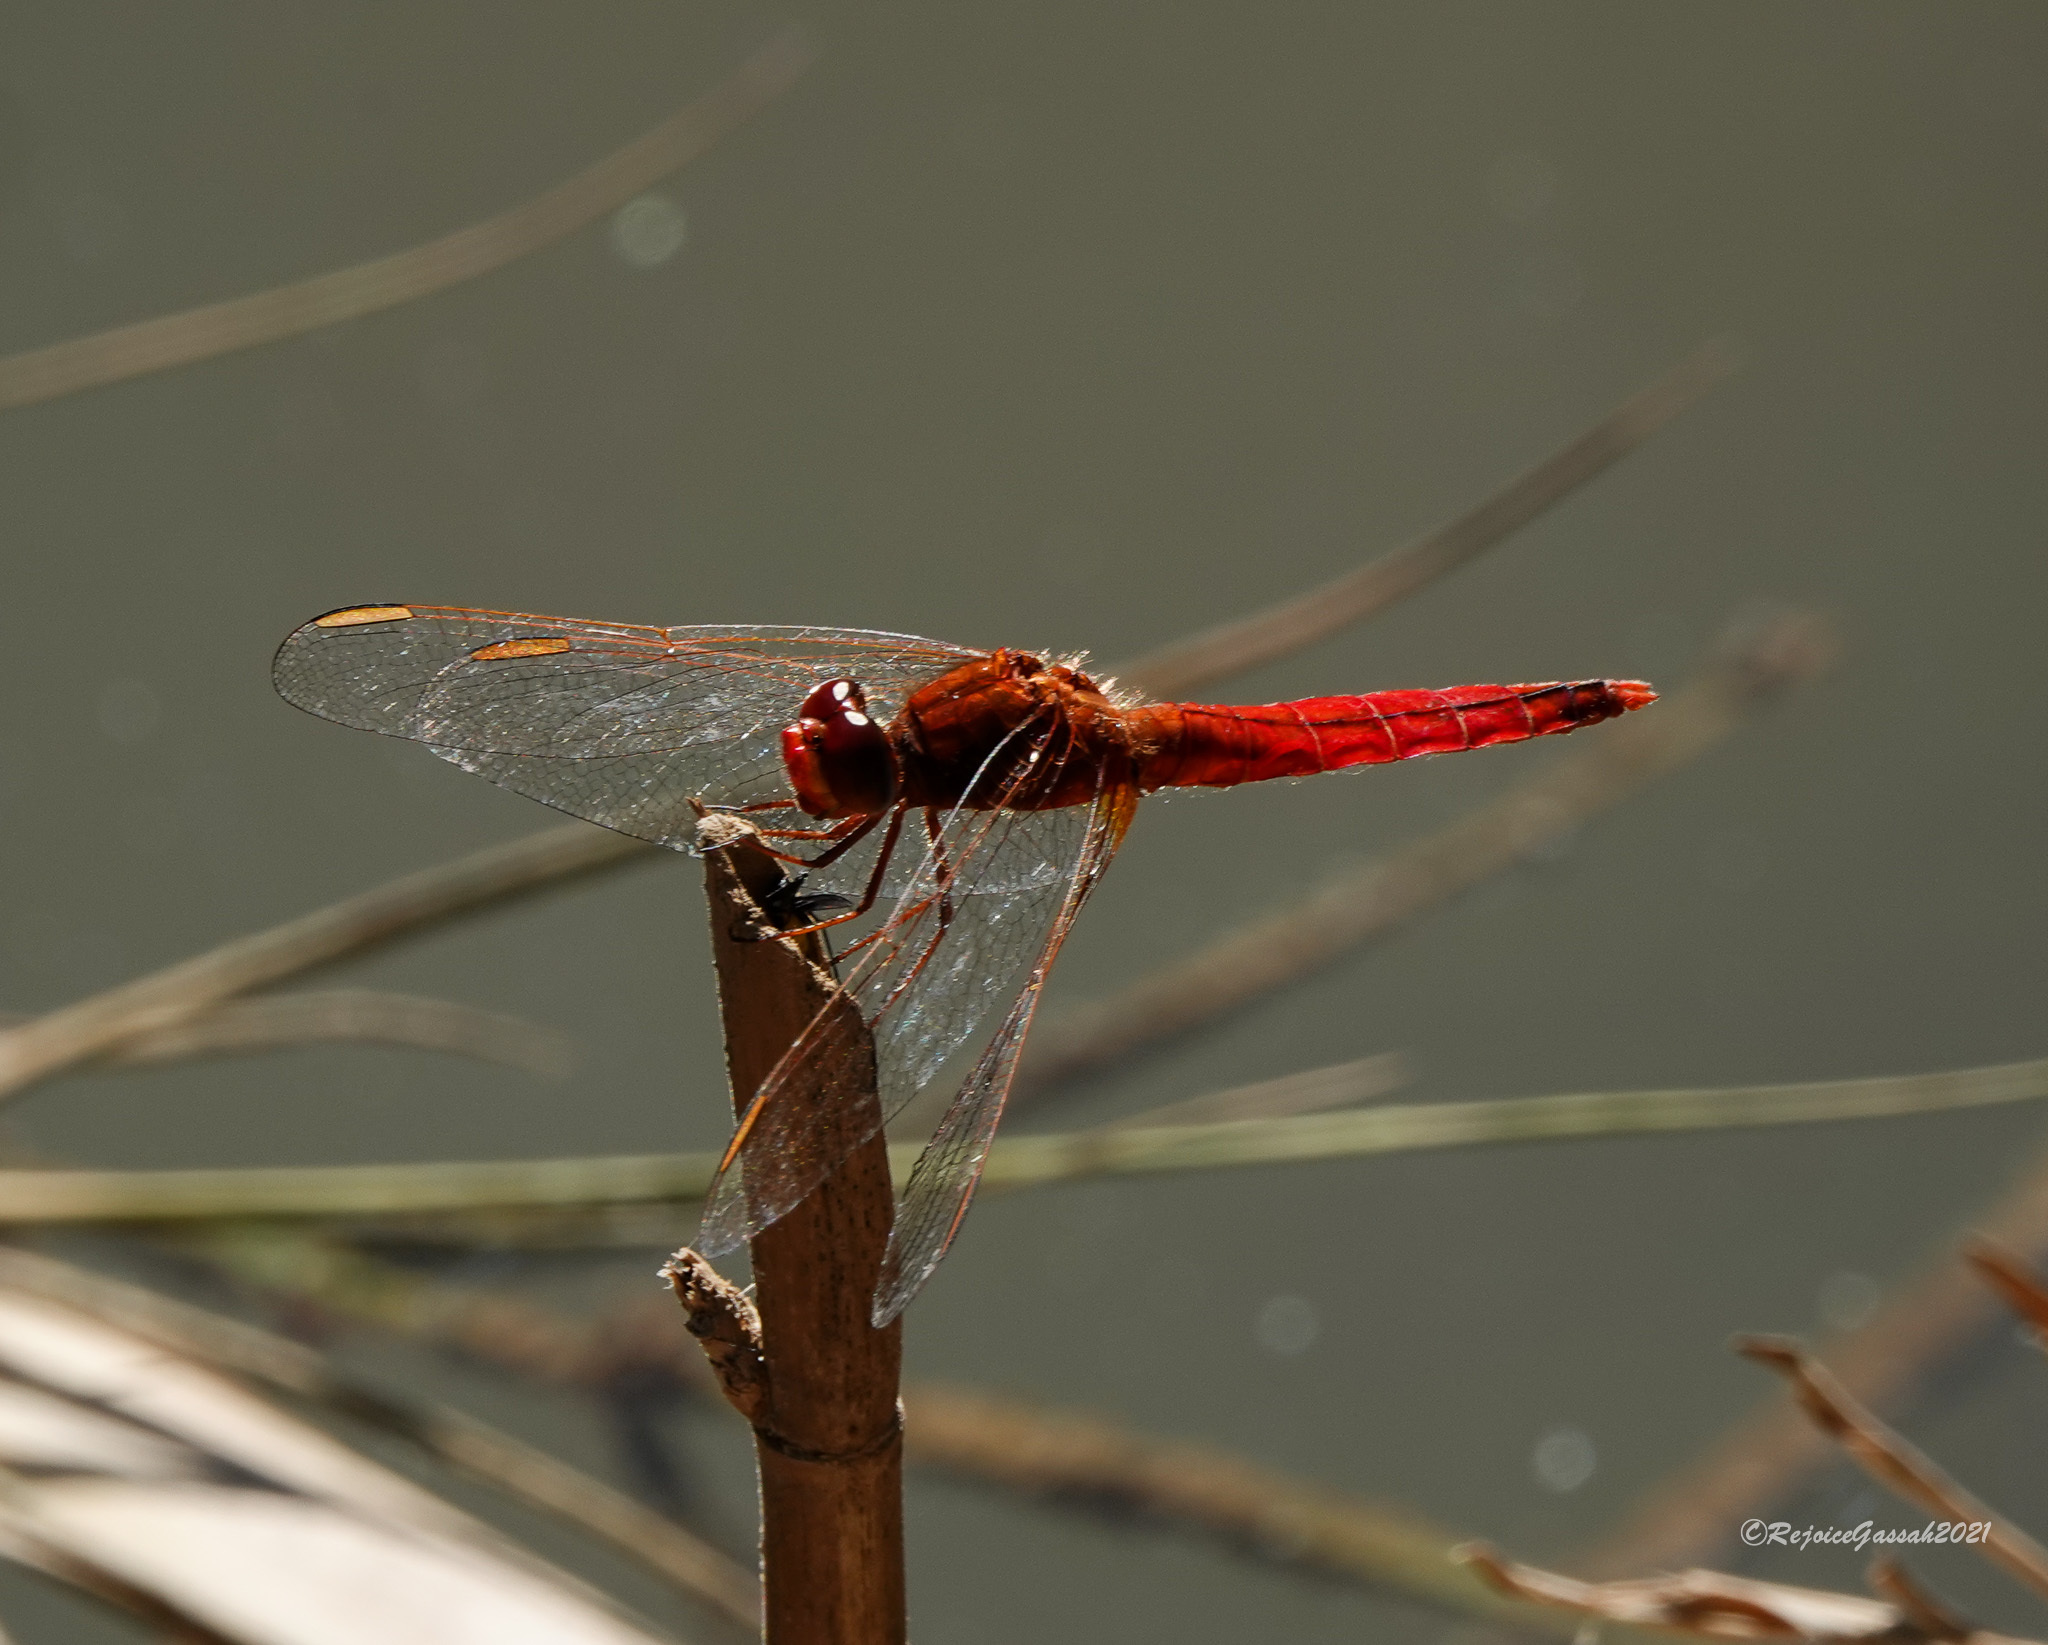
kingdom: Animalia
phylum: Arthropoda
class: Insecta
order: Odonata
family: Libellulidae
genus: Crocothemis
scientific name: Crocothemis servilia
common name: Scarlet skimmer
